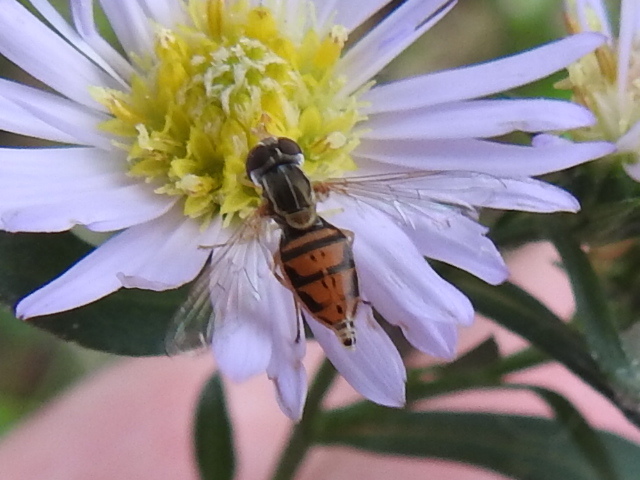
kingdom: Animalia
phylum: Arthropoda
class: Insecta
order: Diptera
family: Syrphidae
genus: Toxomerus
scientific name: Toxomerus marginatus
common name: Syrphid fly
